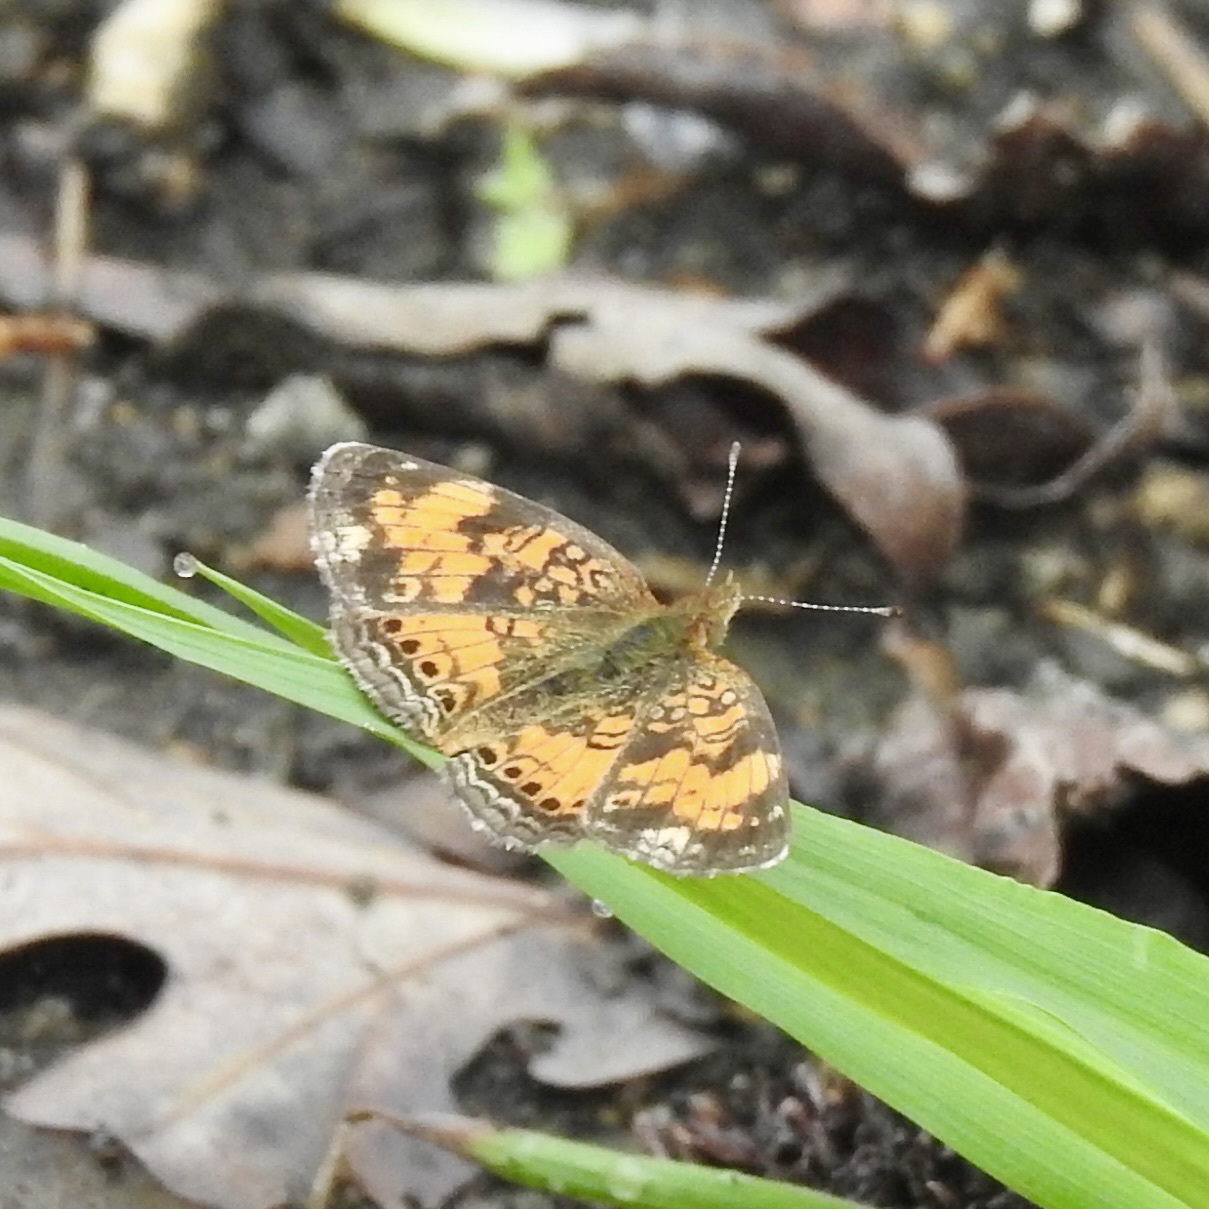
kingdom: Animalia
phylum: Arthropoda
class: Insecta
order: Lepidoptera
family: Nymphalidae
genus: Phyciodes
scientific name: Phyciodes tharos
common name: Pearl crescent
